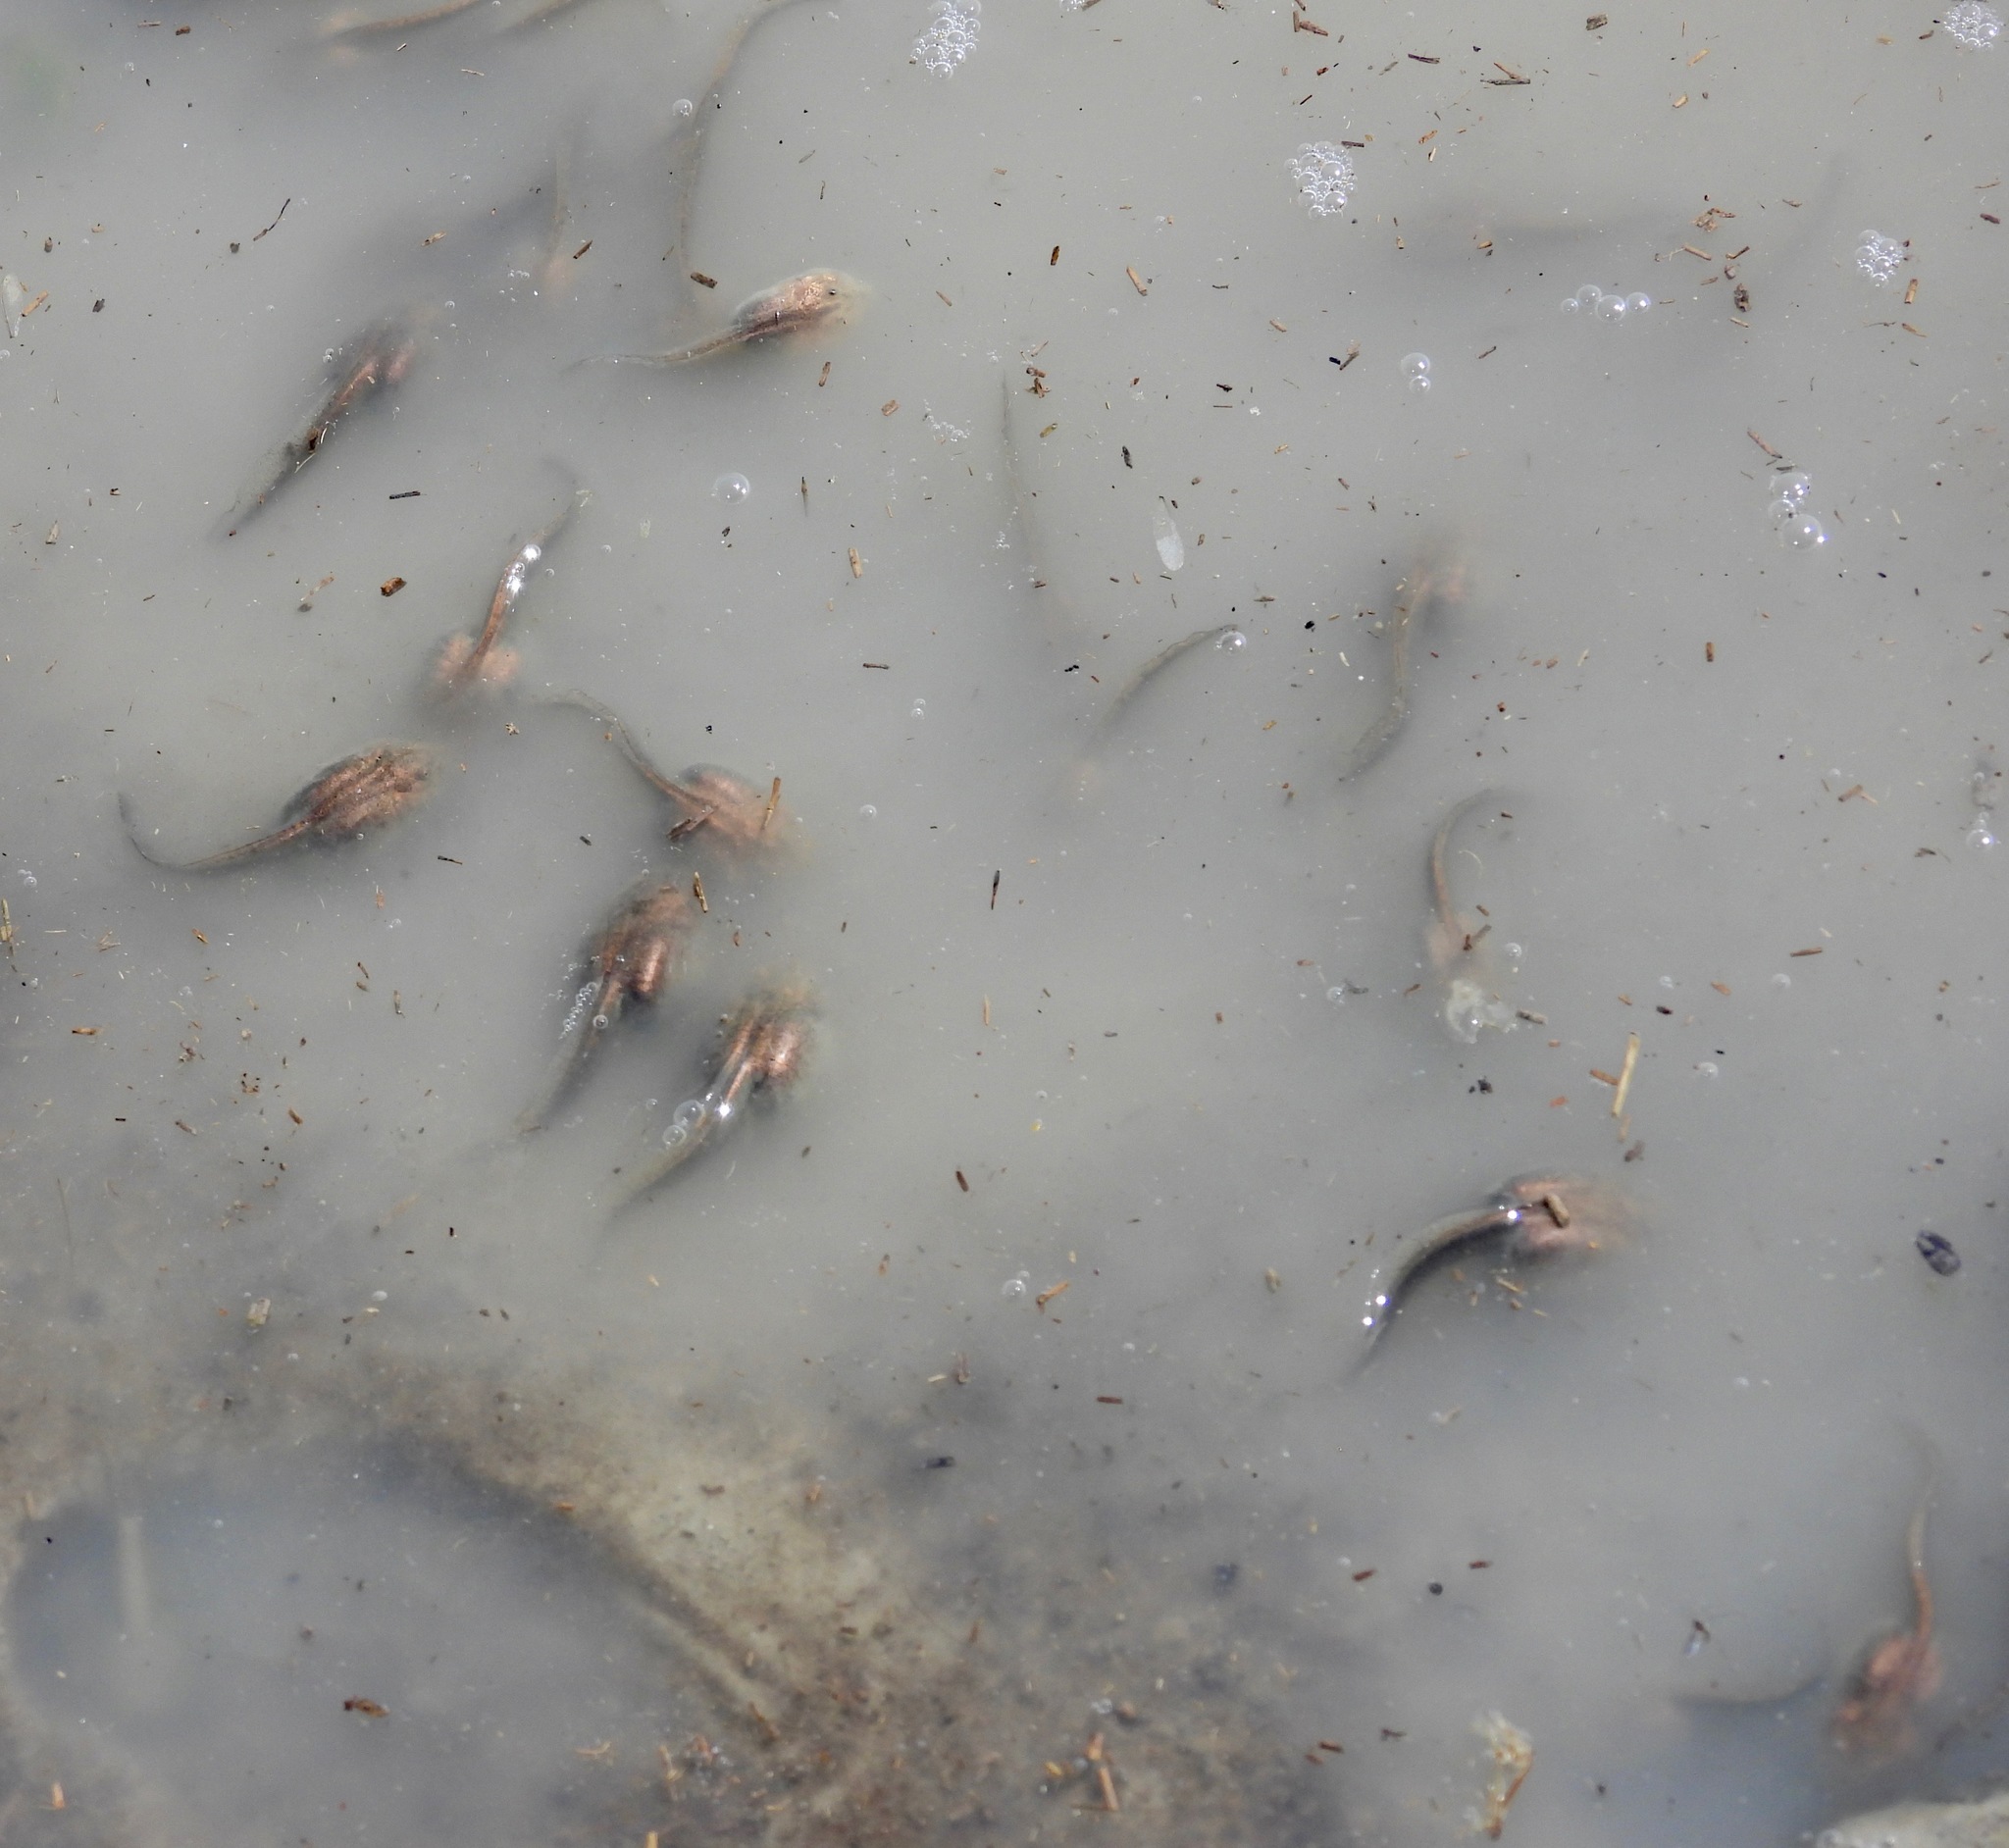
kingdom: Animalia
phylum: Chordata
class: Amphibia
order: Anura
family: Scaphiopodidae
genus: Spea
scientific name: Spea multiplicata
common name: Mexican spadefoot
